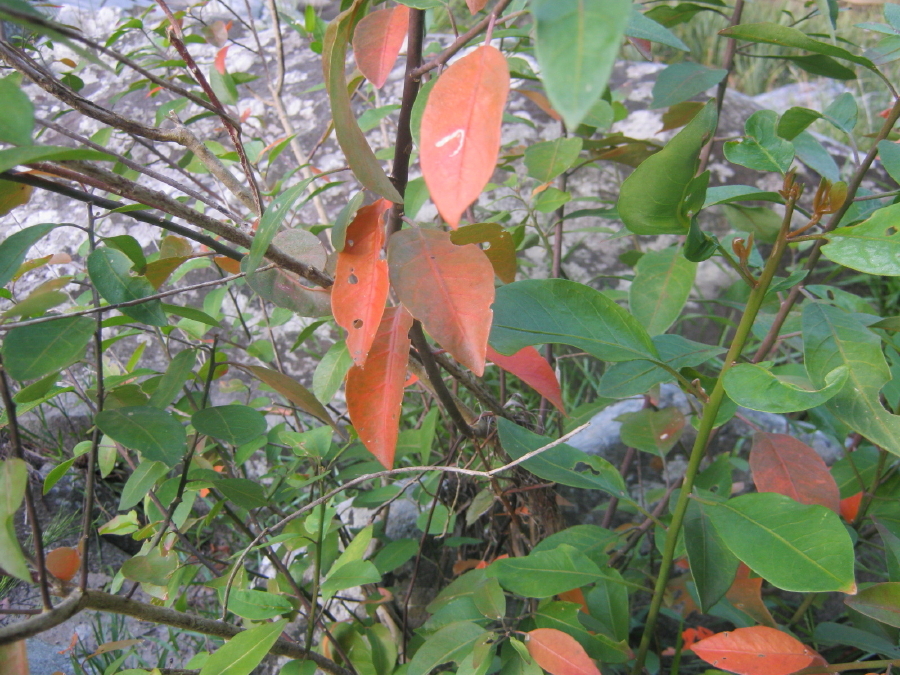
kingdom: Plantae
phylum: Tracheophyta
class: Magnoliopsida
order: Malpighiales
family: Peraceae
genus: Clutia
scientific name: Clutia pulchella
